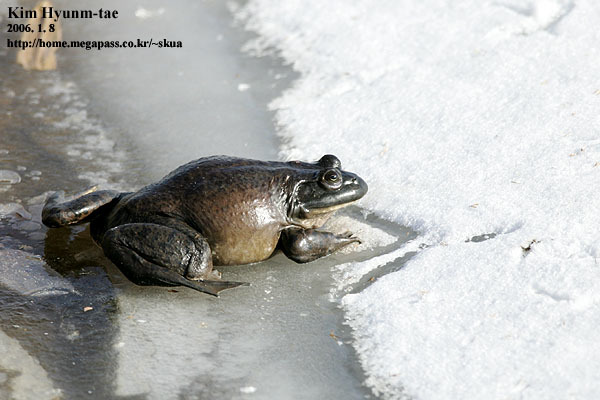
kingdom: Animalia
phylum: Chordata
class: Amphibia
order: Anura
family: Ranidae
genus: Lithobates
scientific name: Lithobates catesbeianus
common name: American bullfrog
